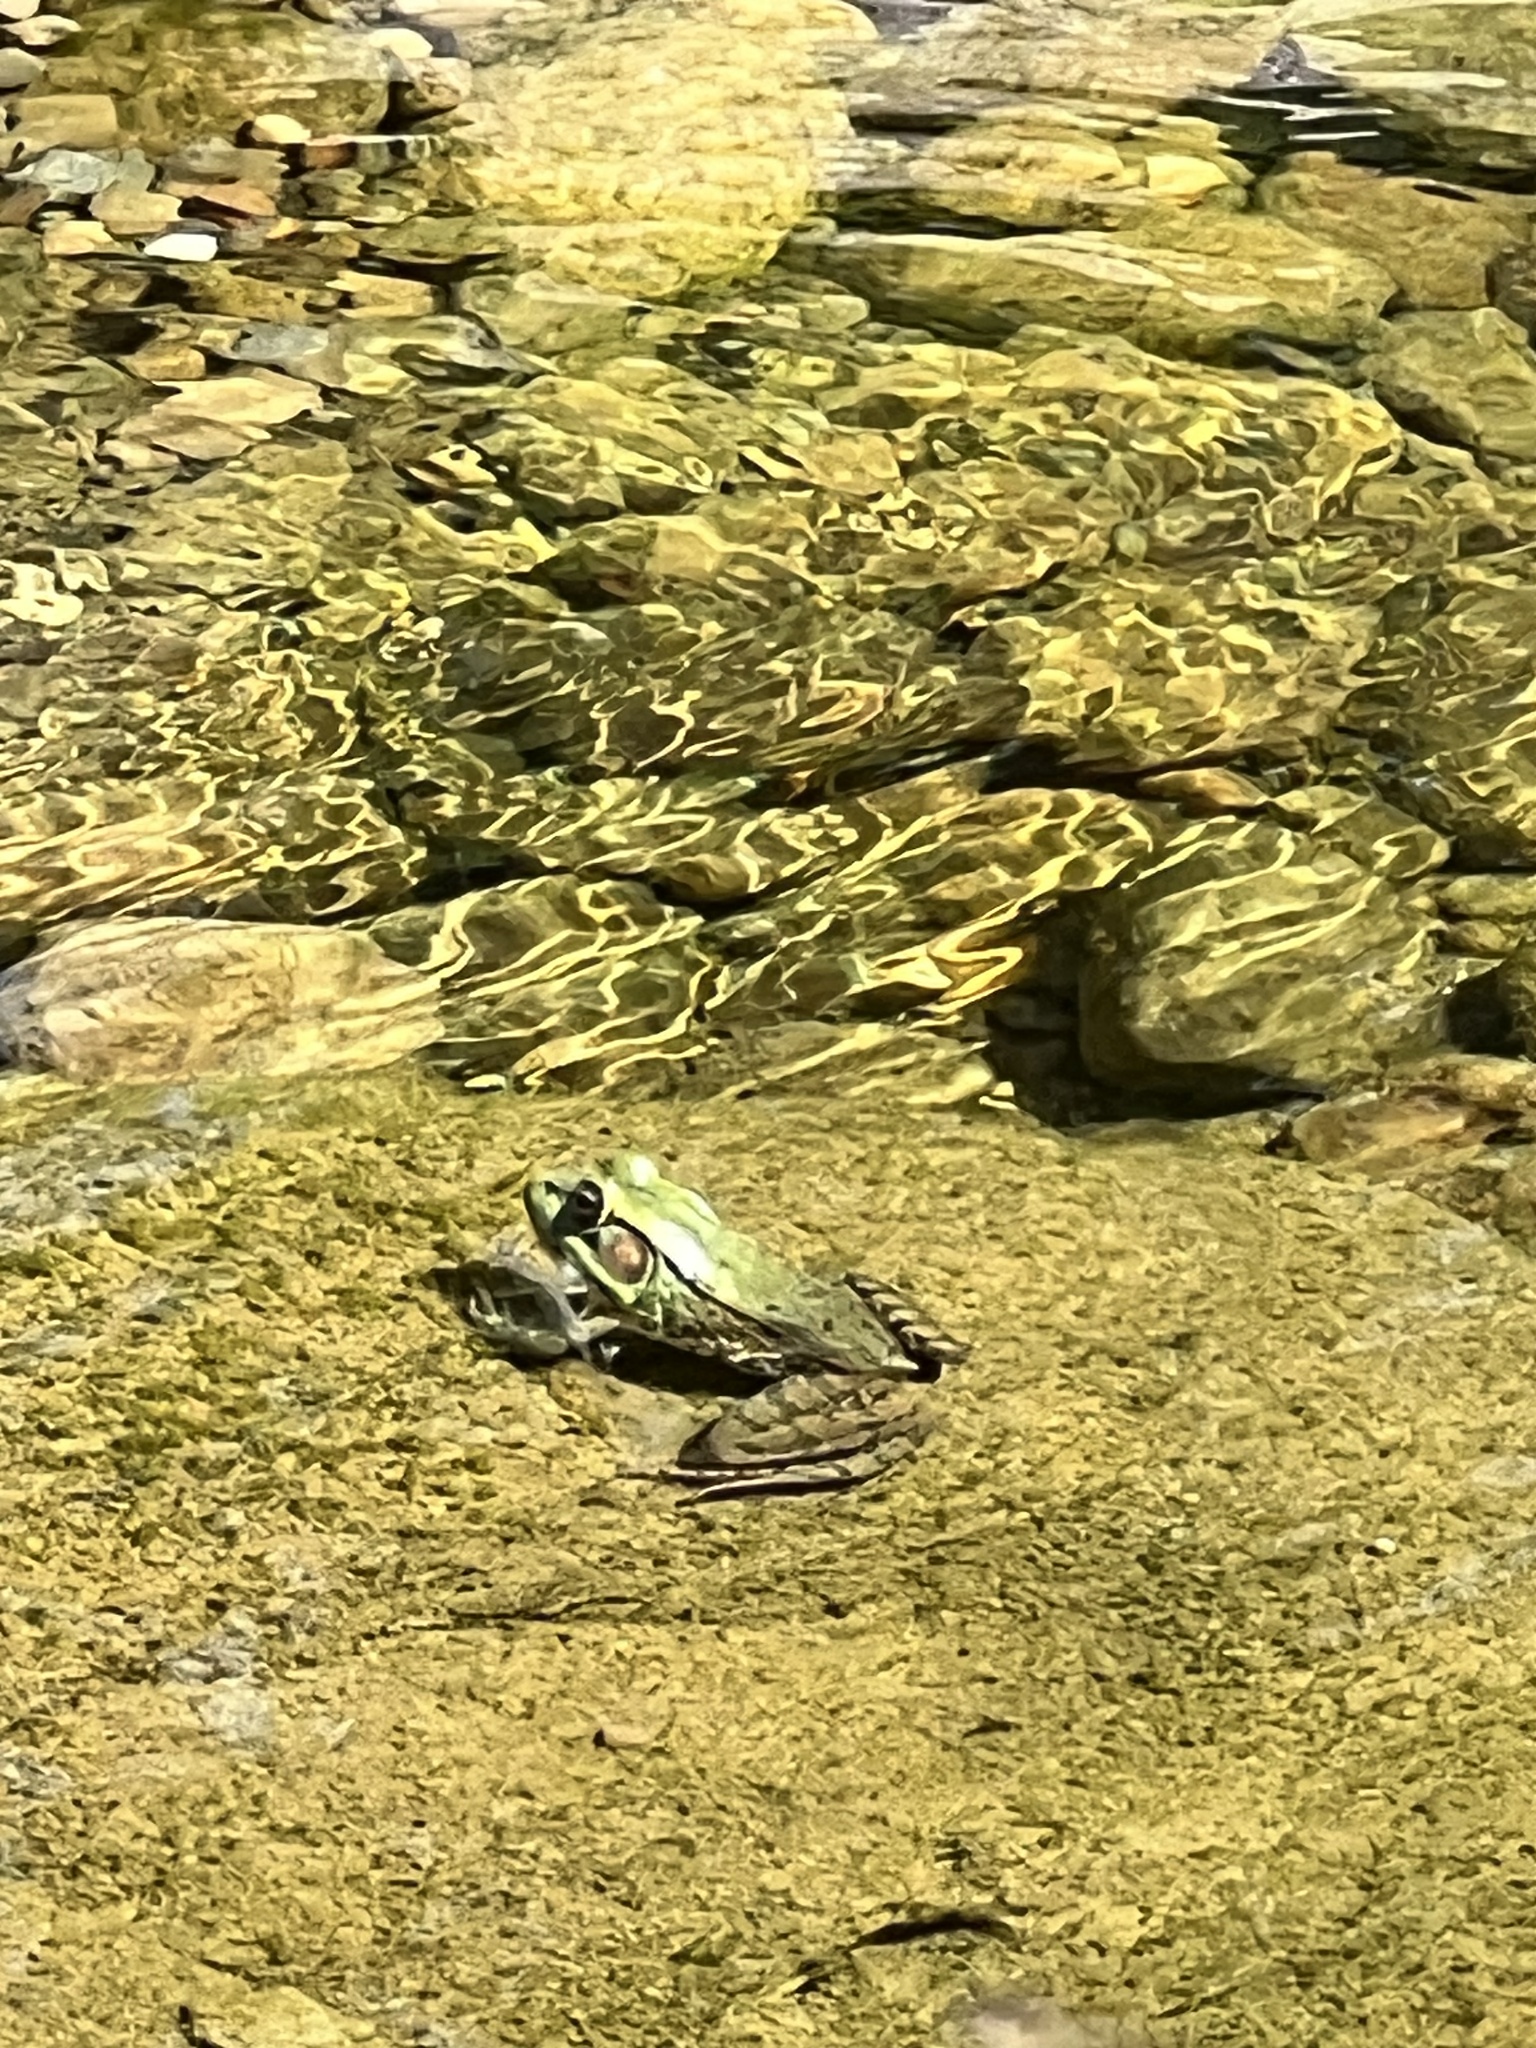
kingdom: Animalia
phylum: Chordata
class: Amphibia
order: Anura
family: Ranidae
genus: Lithobates
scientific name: Lithobates clamitans
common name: Green frog
